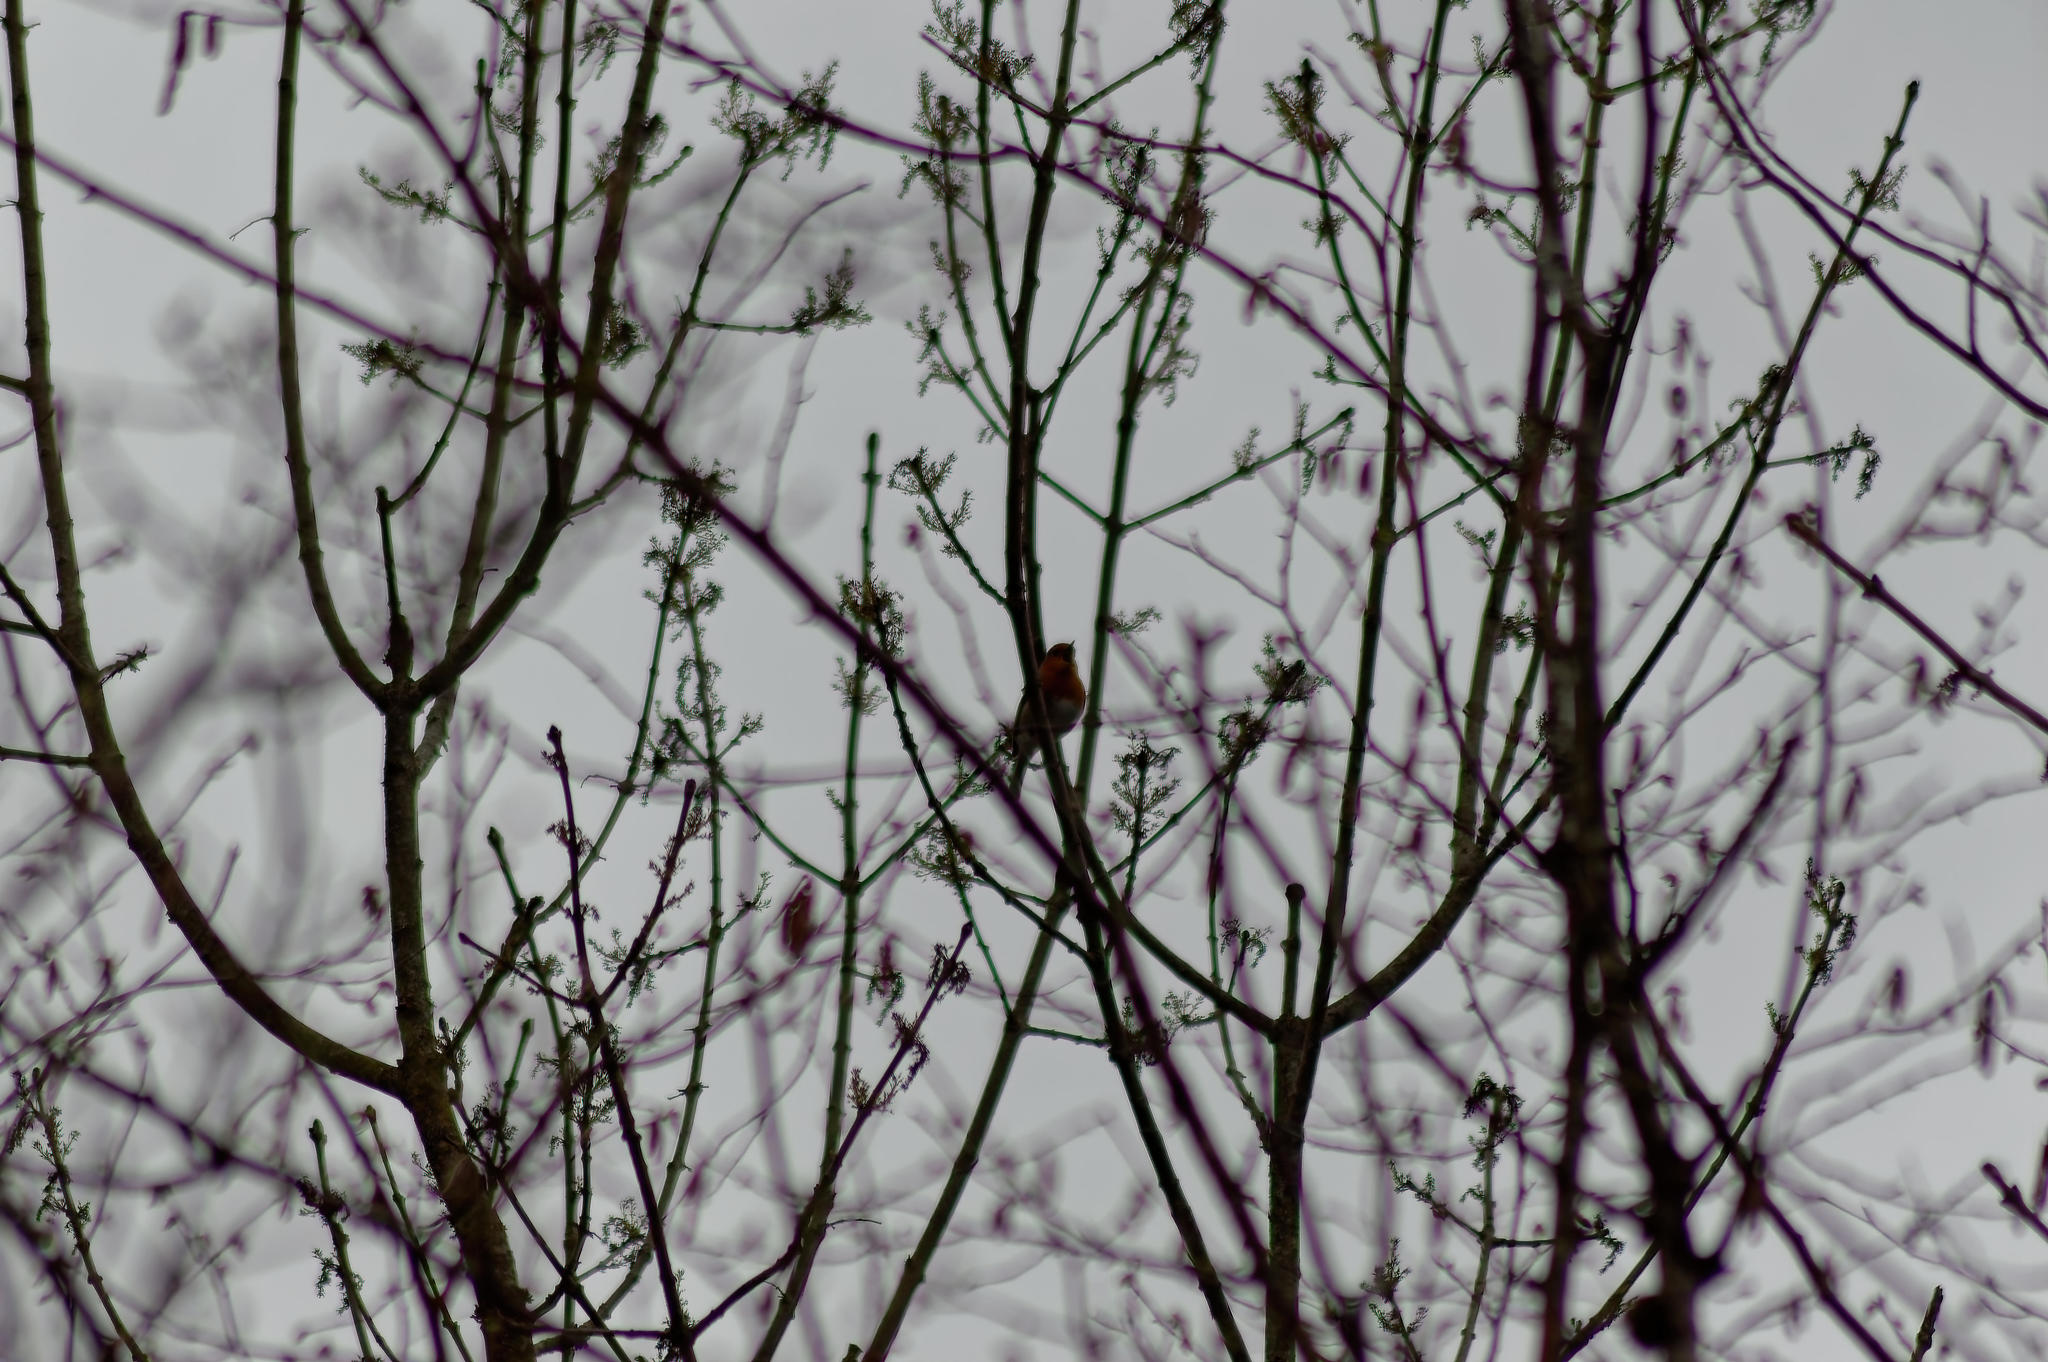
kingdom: Animalia
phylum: Chordata
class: Aves
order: Passeriformes
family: Muscicapidae
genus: Erithacus
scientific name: Erithacus rubecula
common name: European robin
